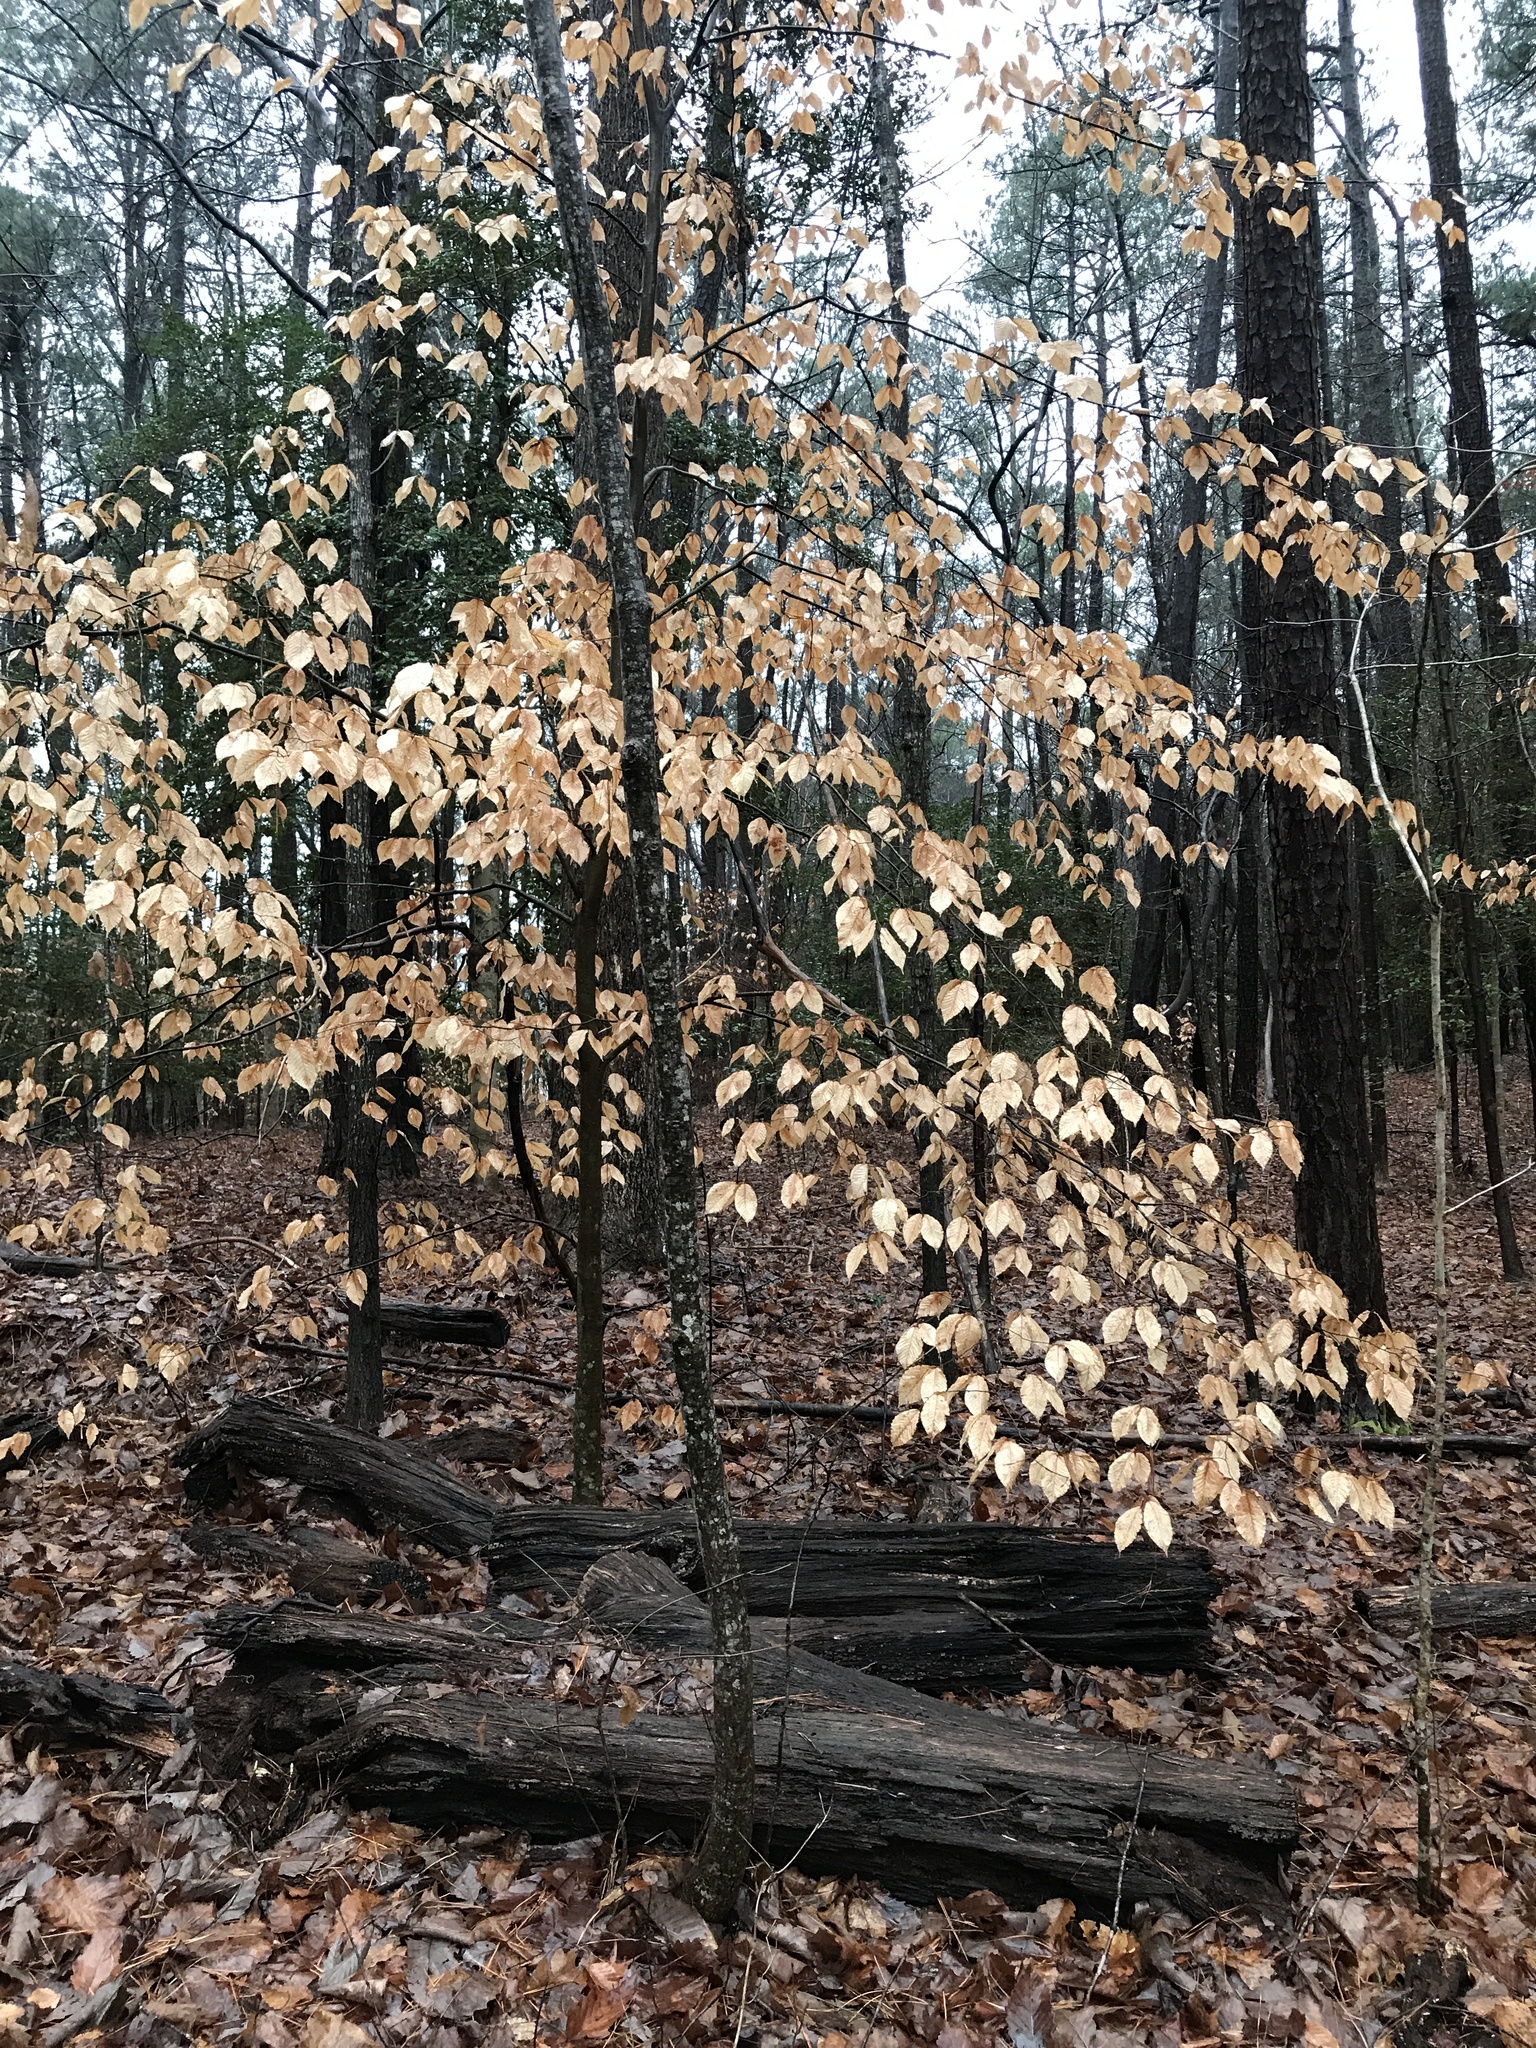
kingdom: Plantae
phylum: Tracheophyta
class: Magnoliopsida
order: Fagales
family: Fagaceae
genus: Fagus
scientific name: Fagus grandifolia
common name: American beech
